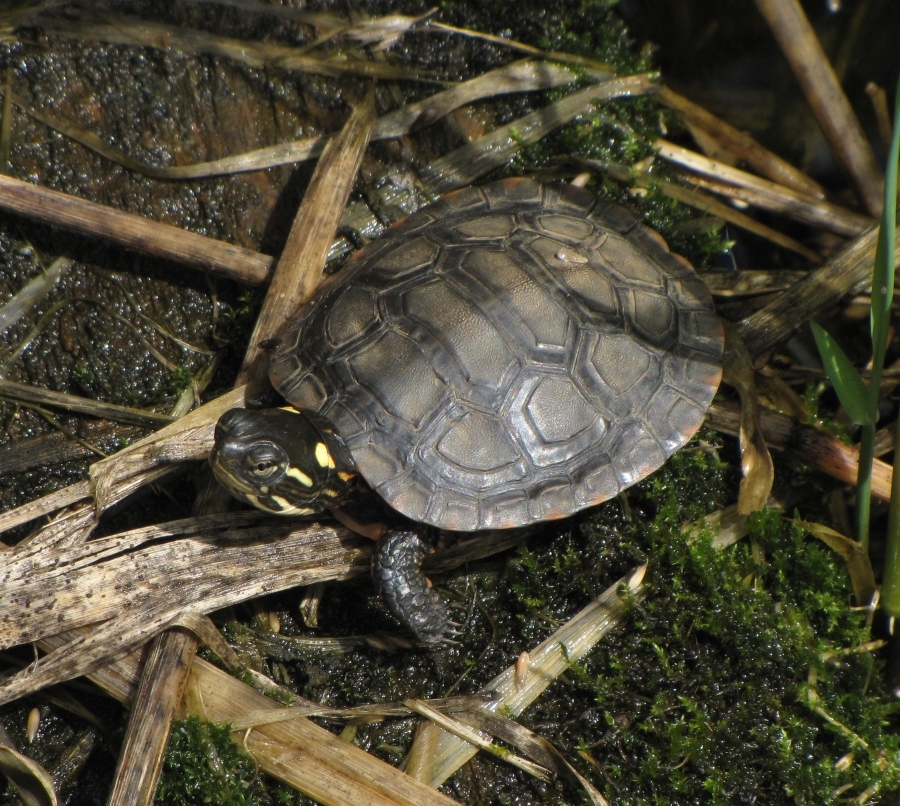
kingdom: Animalia
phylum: Chordata
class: Testudines
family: Emydidae
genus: Chrysemys
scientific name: Chrysemys picta
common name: Painted turtle
